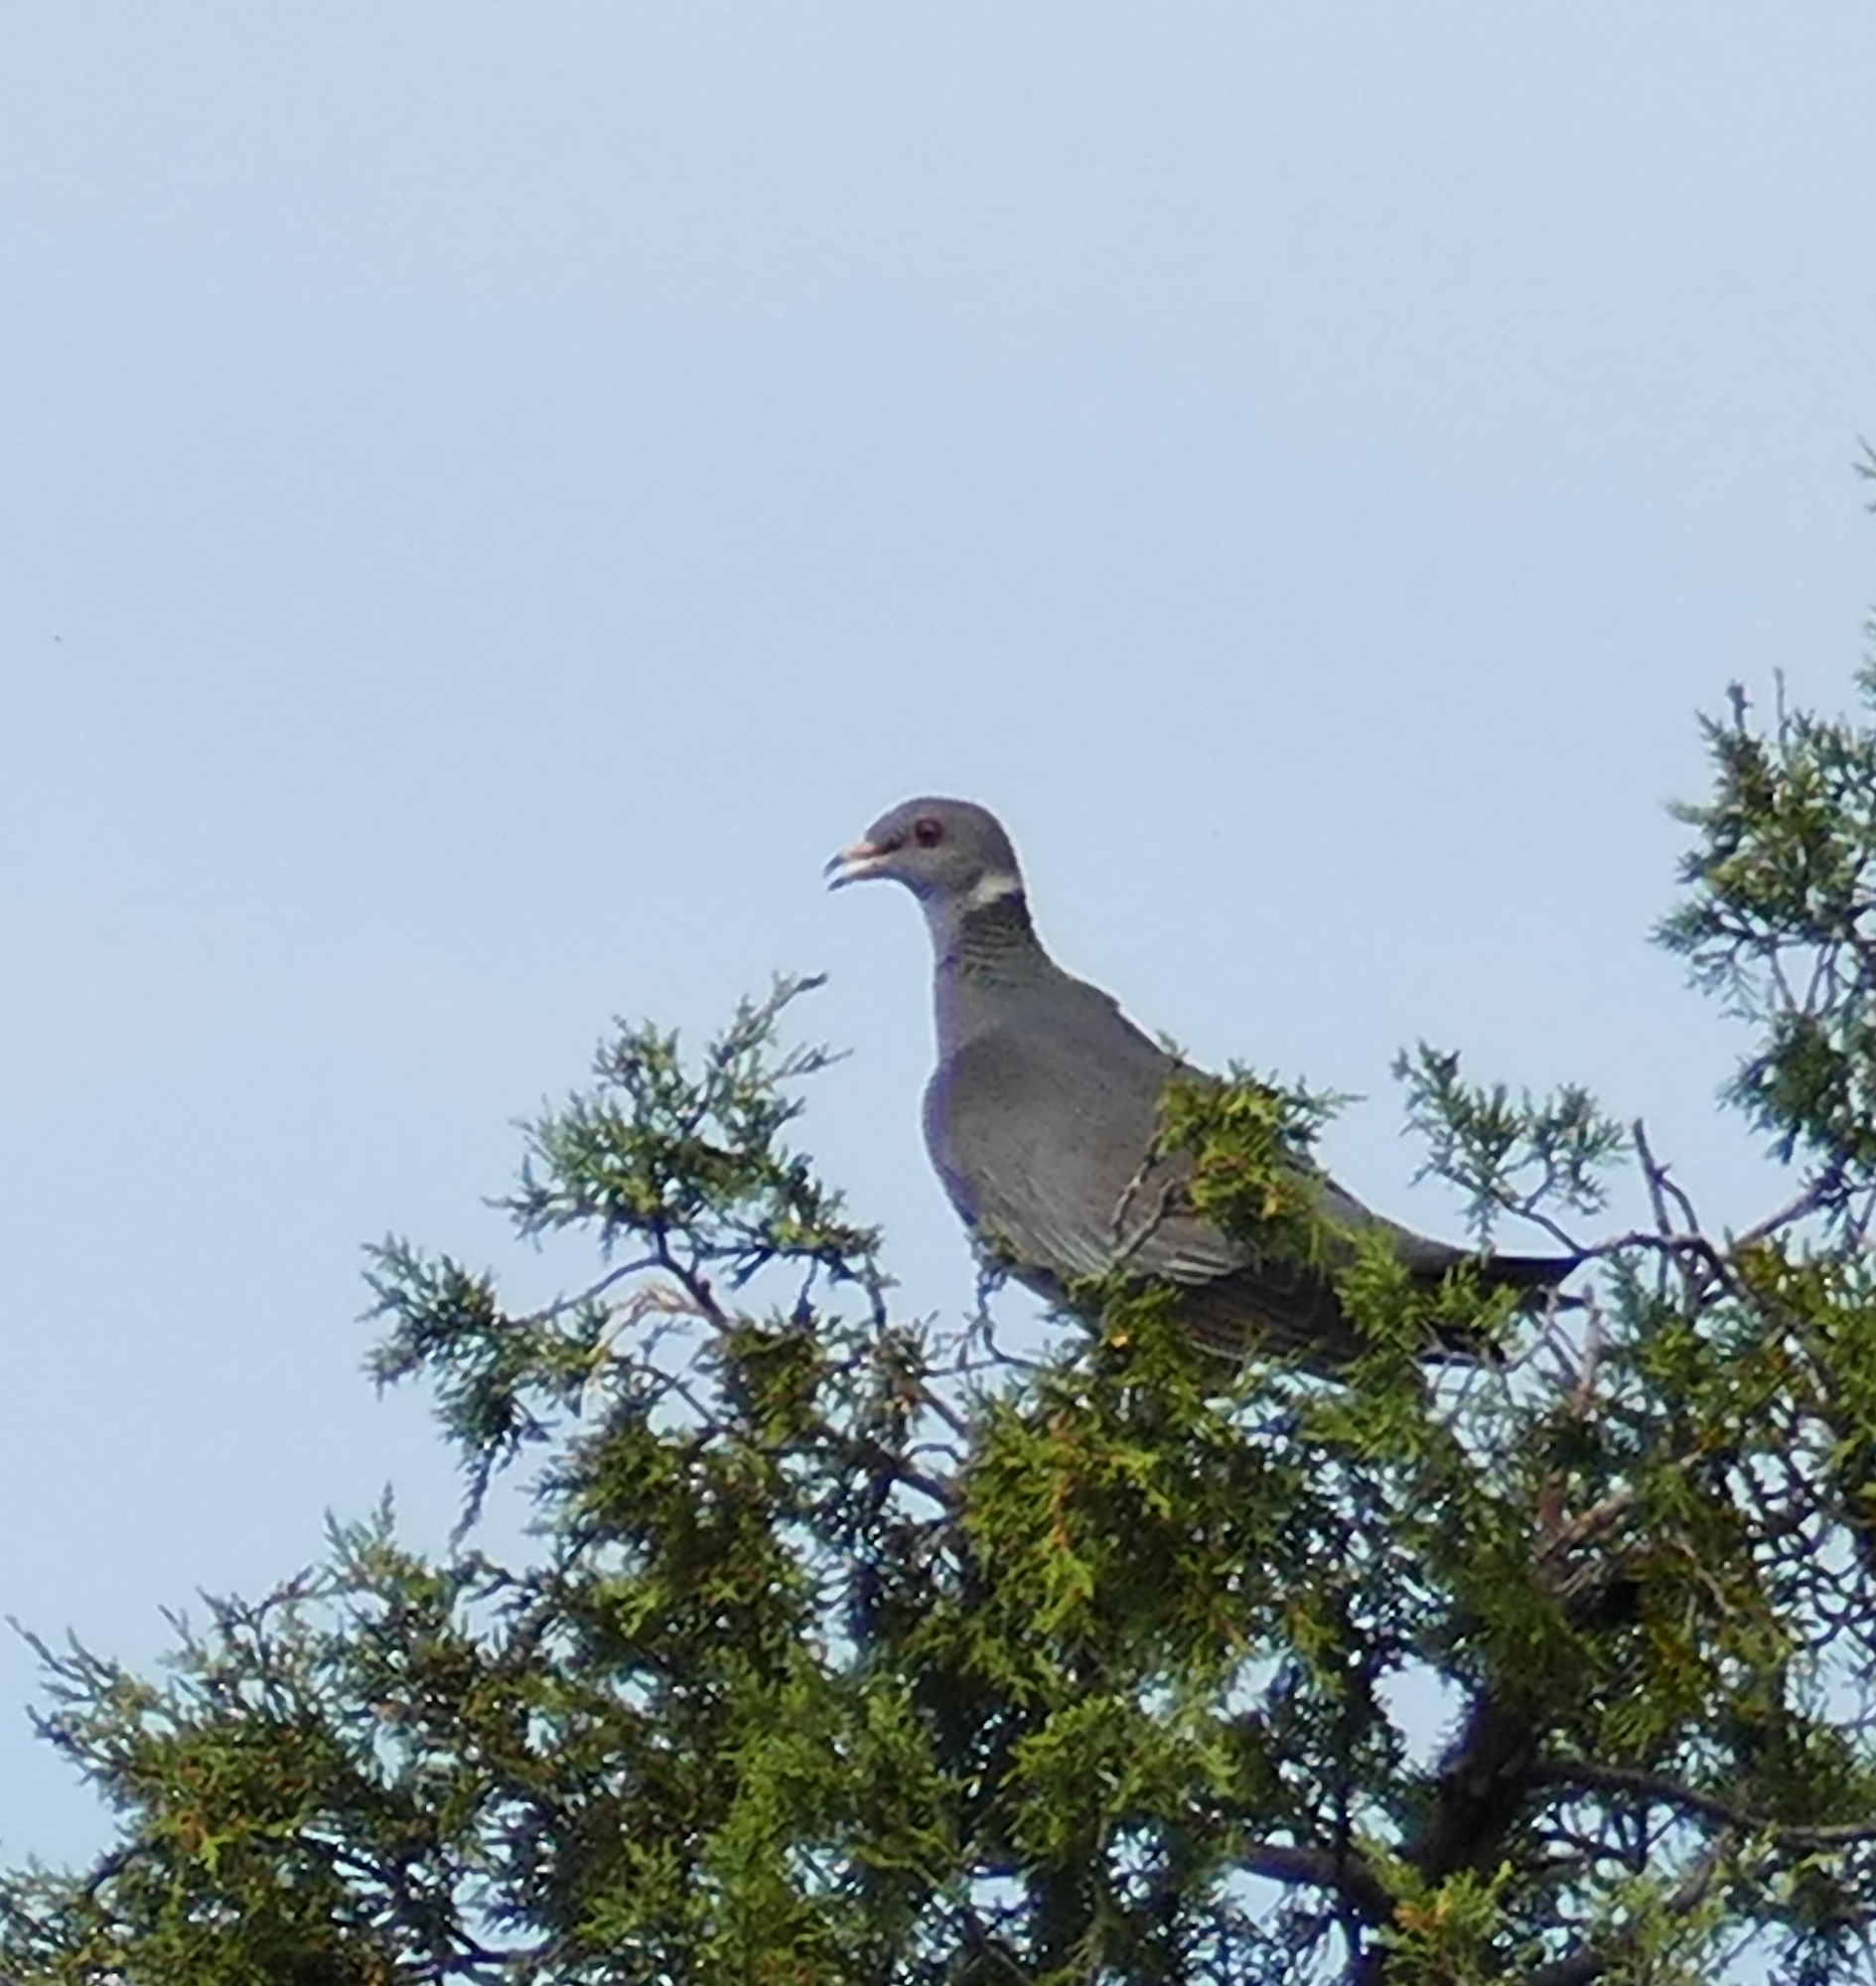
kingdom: Animalia
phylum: Chordata
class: Aves
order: Columbiformes
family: Columbidae
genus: Patagioenas
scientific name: Patagioenas fasciata
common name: Band-tailed pigeon
